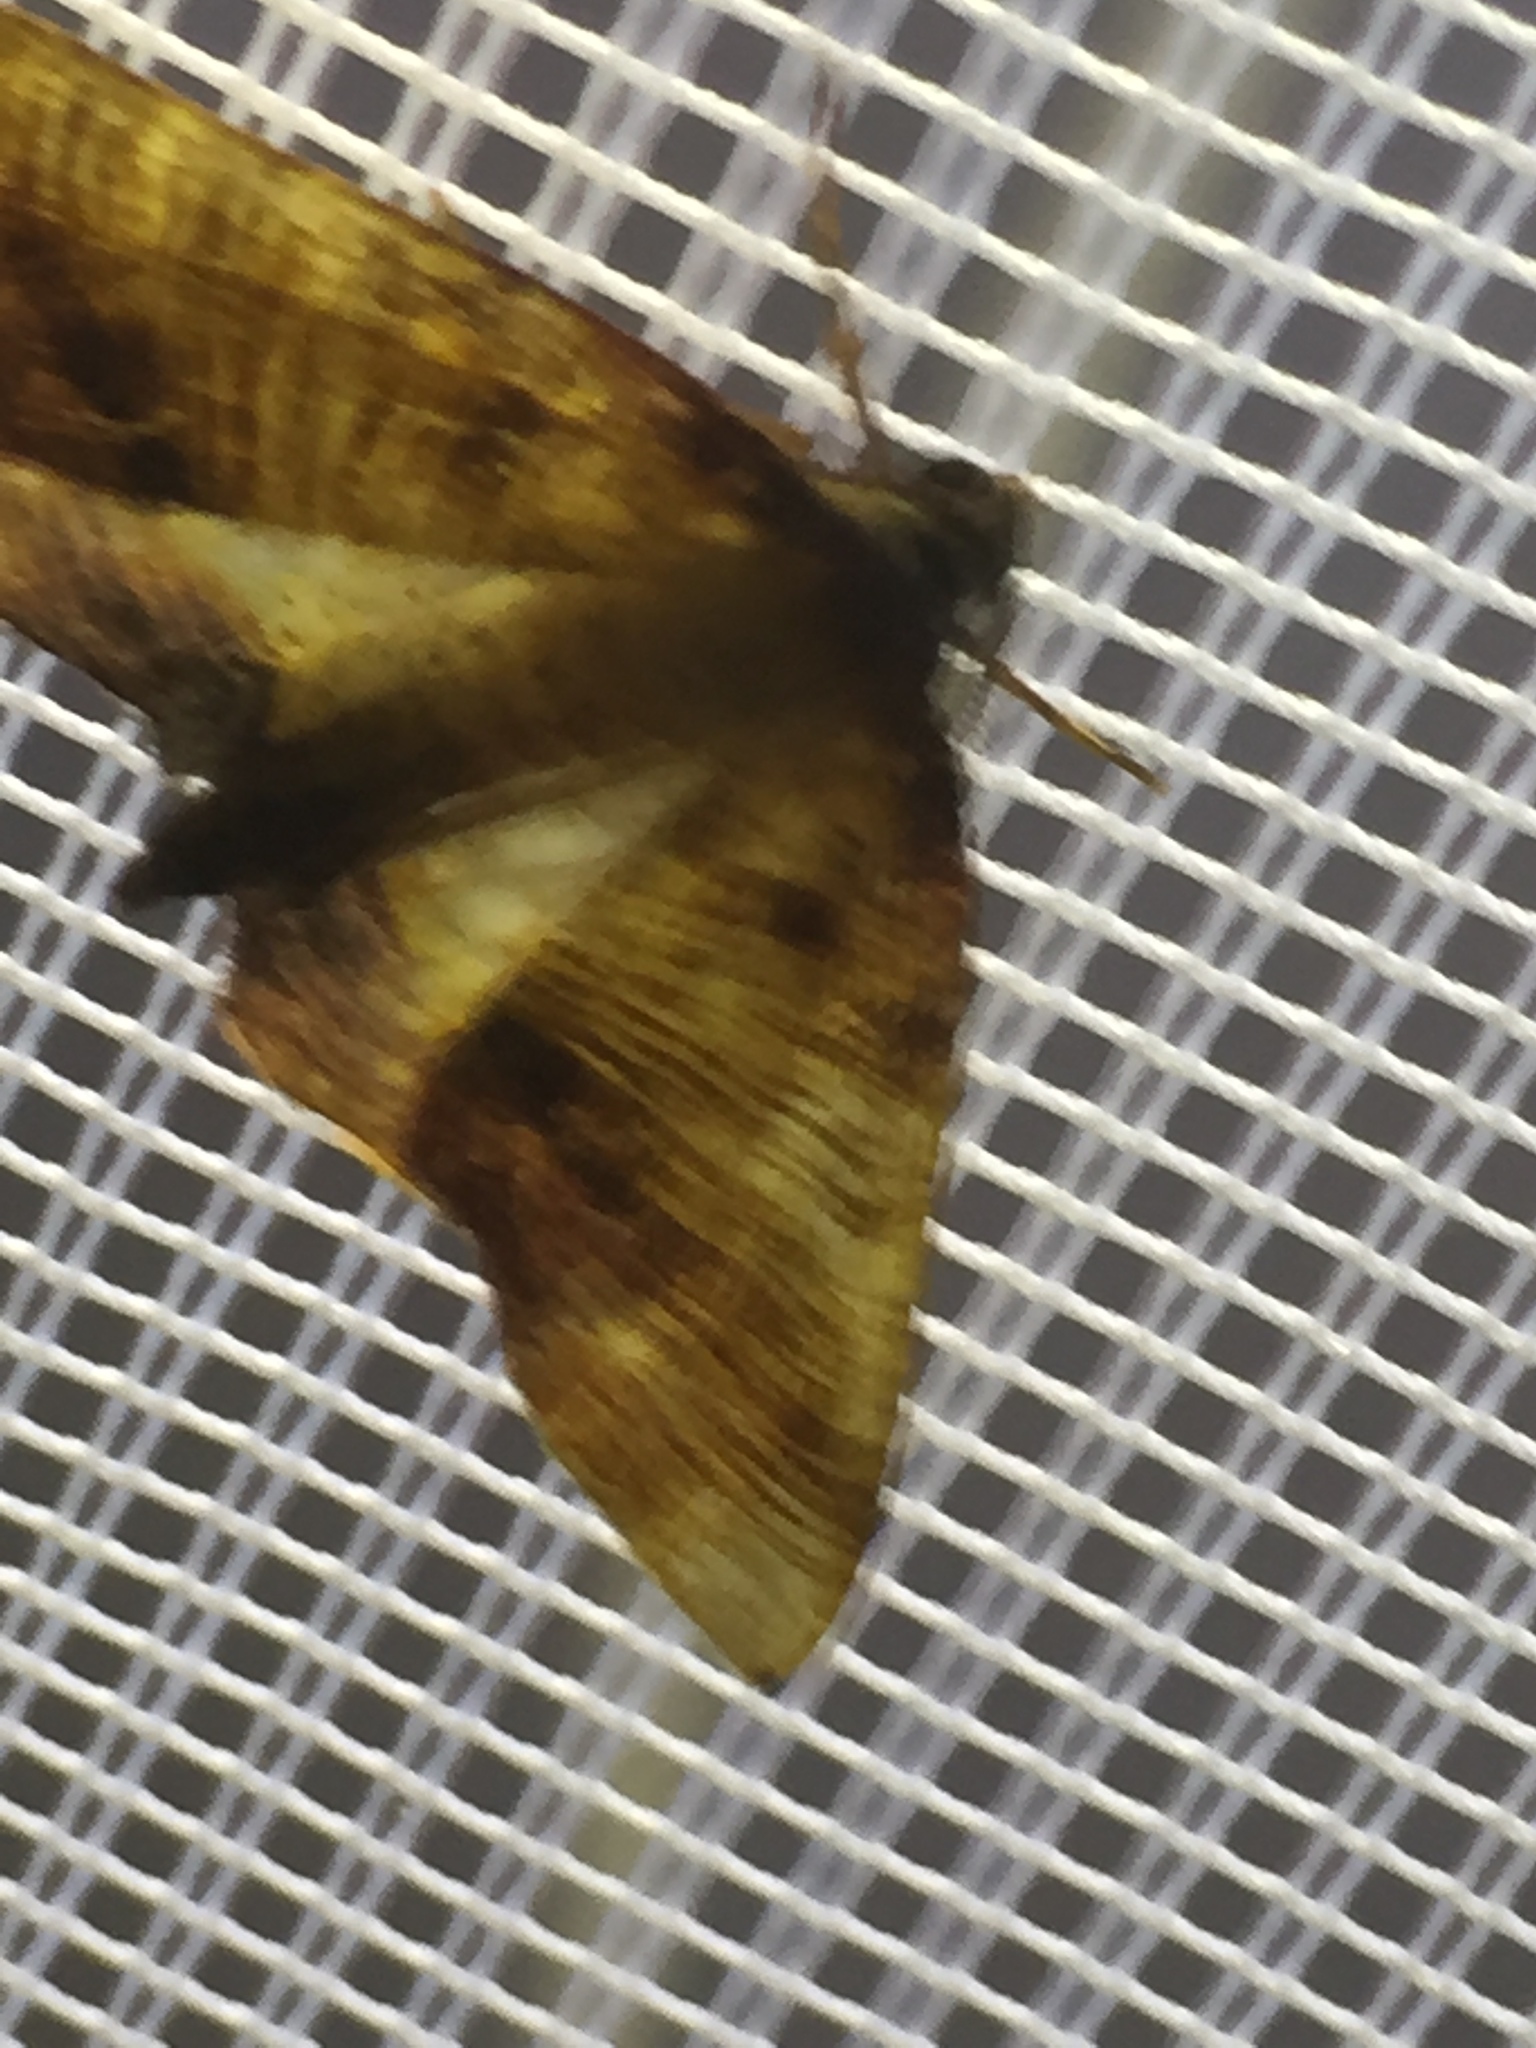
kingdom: Animalia
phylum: Arthropoda
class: Insecta
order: Lepidoptera
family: Geometridae
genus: Plagodis
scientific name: Plagodis dolabraria
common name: Scorched wing
